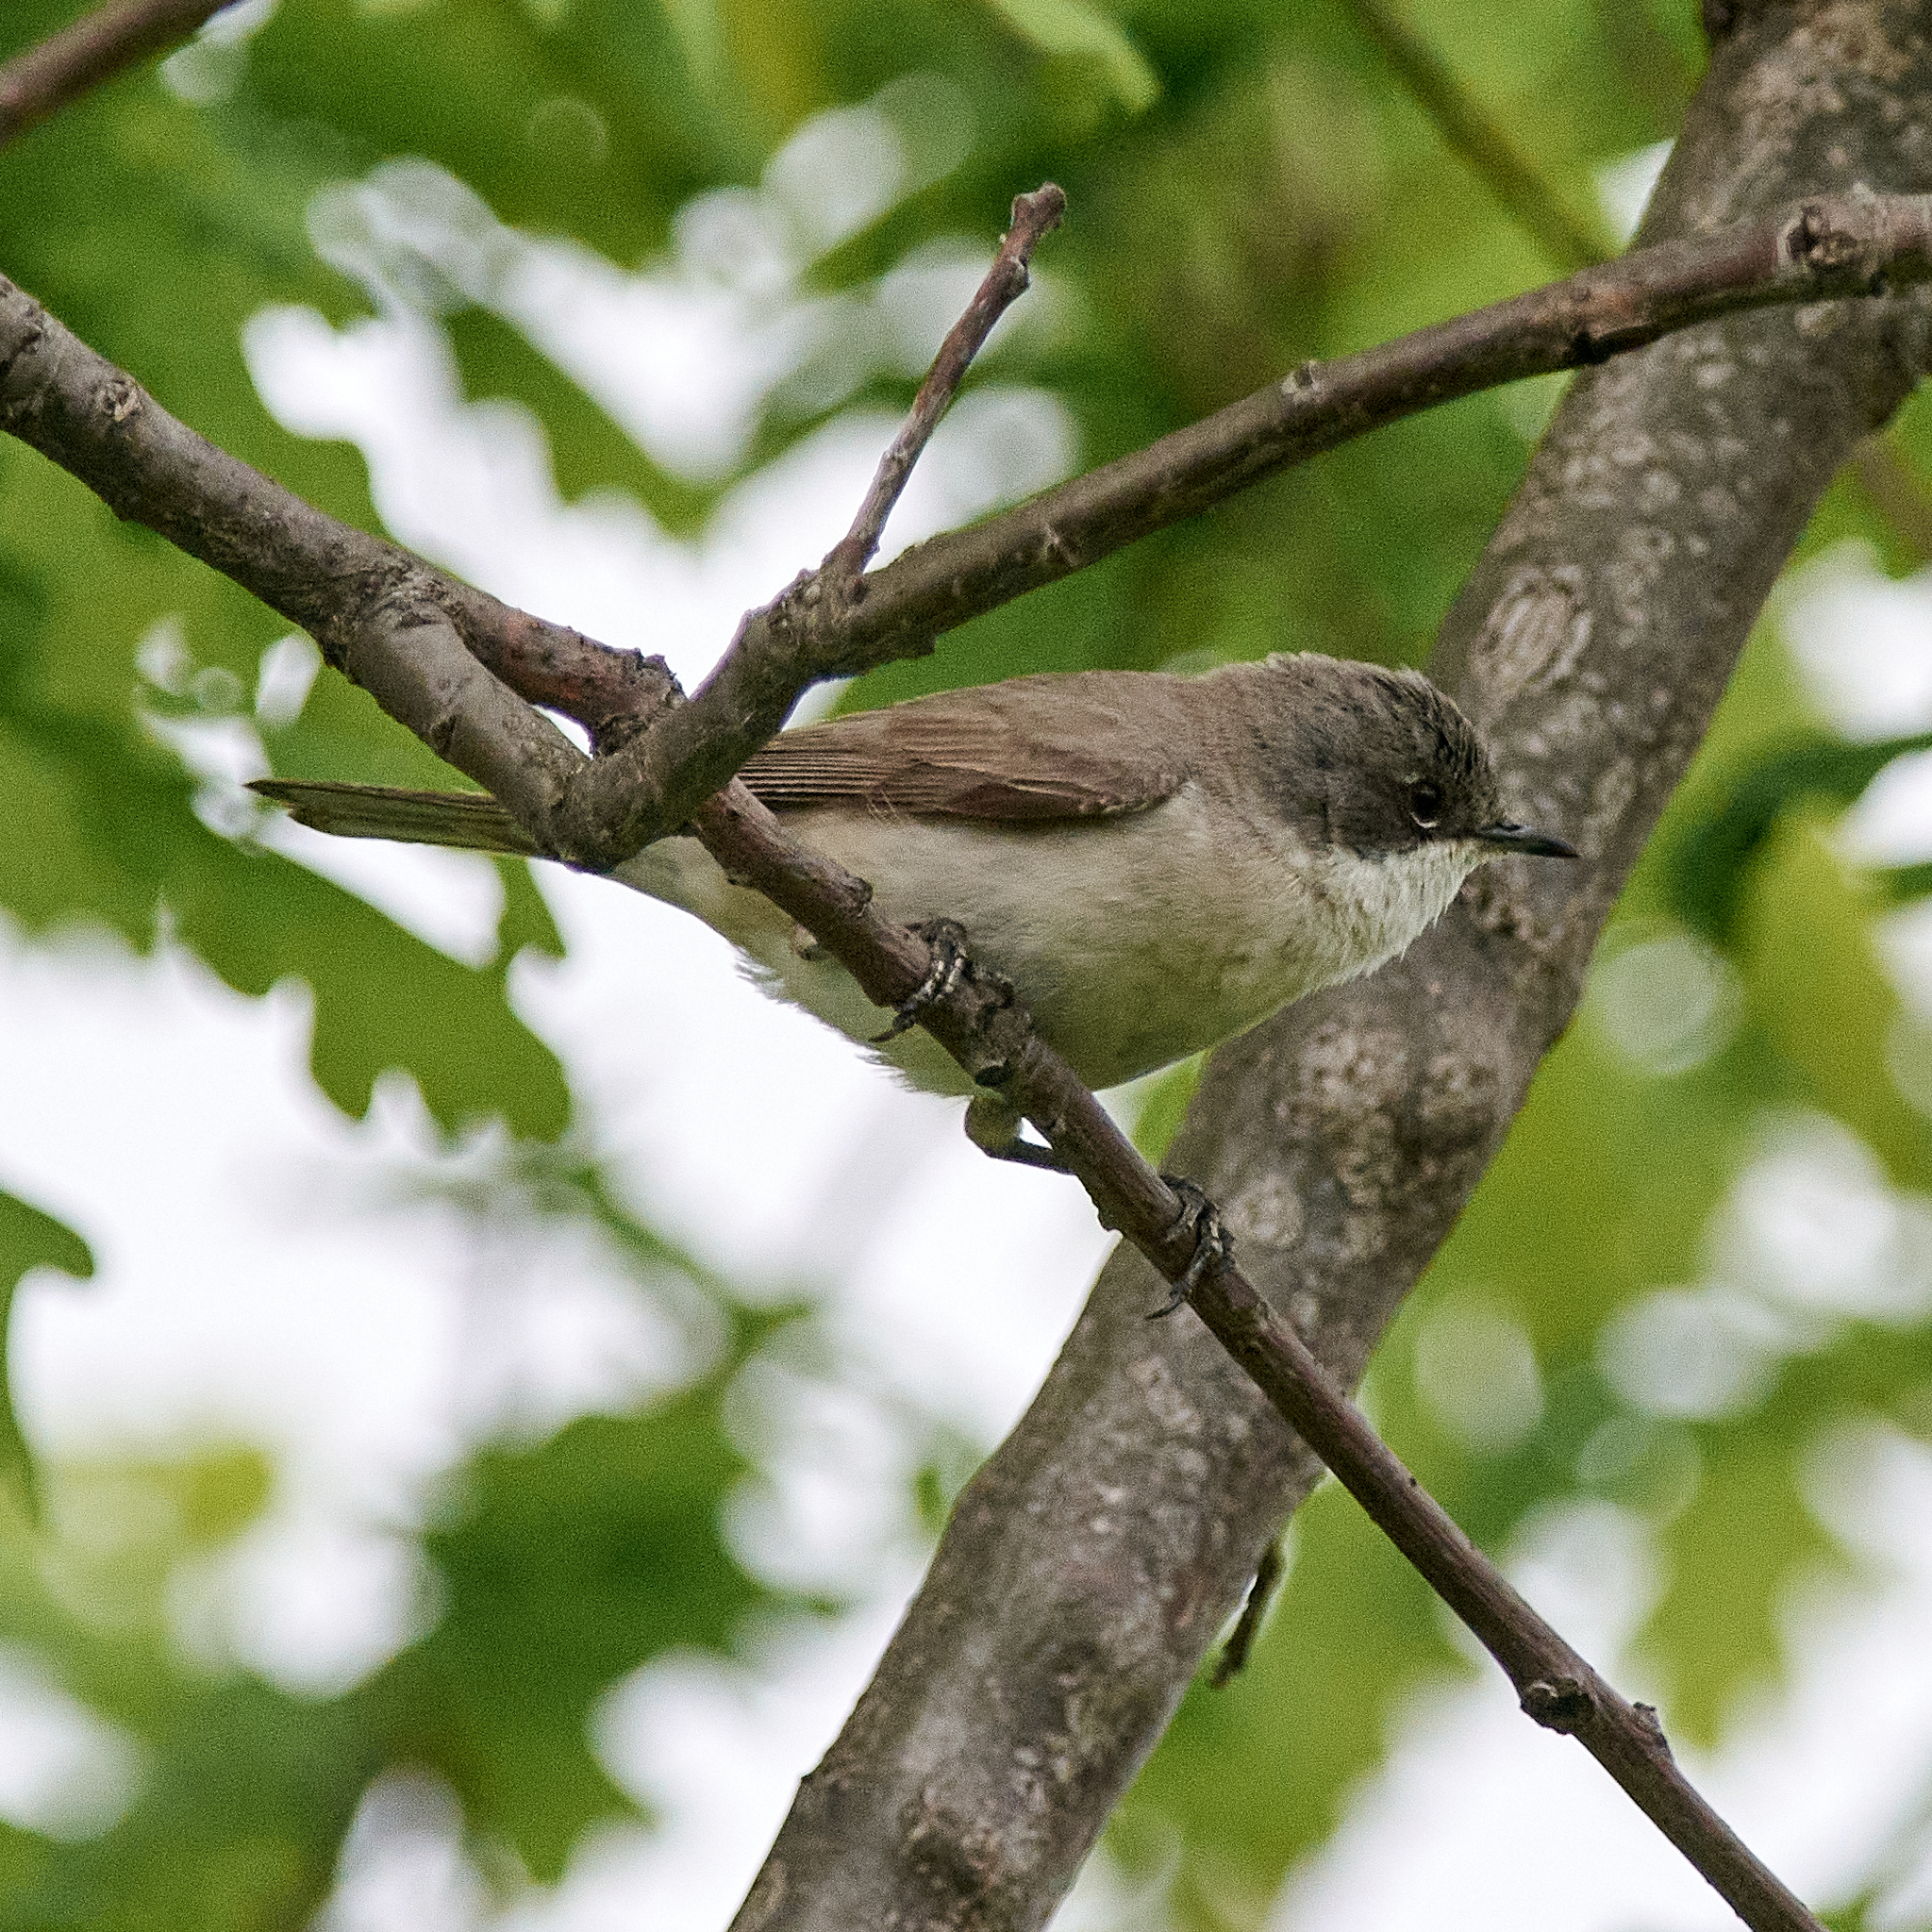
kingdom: Animalia
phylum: Chordata
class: Aves
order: Passeriformes
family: Sylviidae
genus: Sylvia
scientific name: Sylvia curruca
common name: Lesser whitethroat
